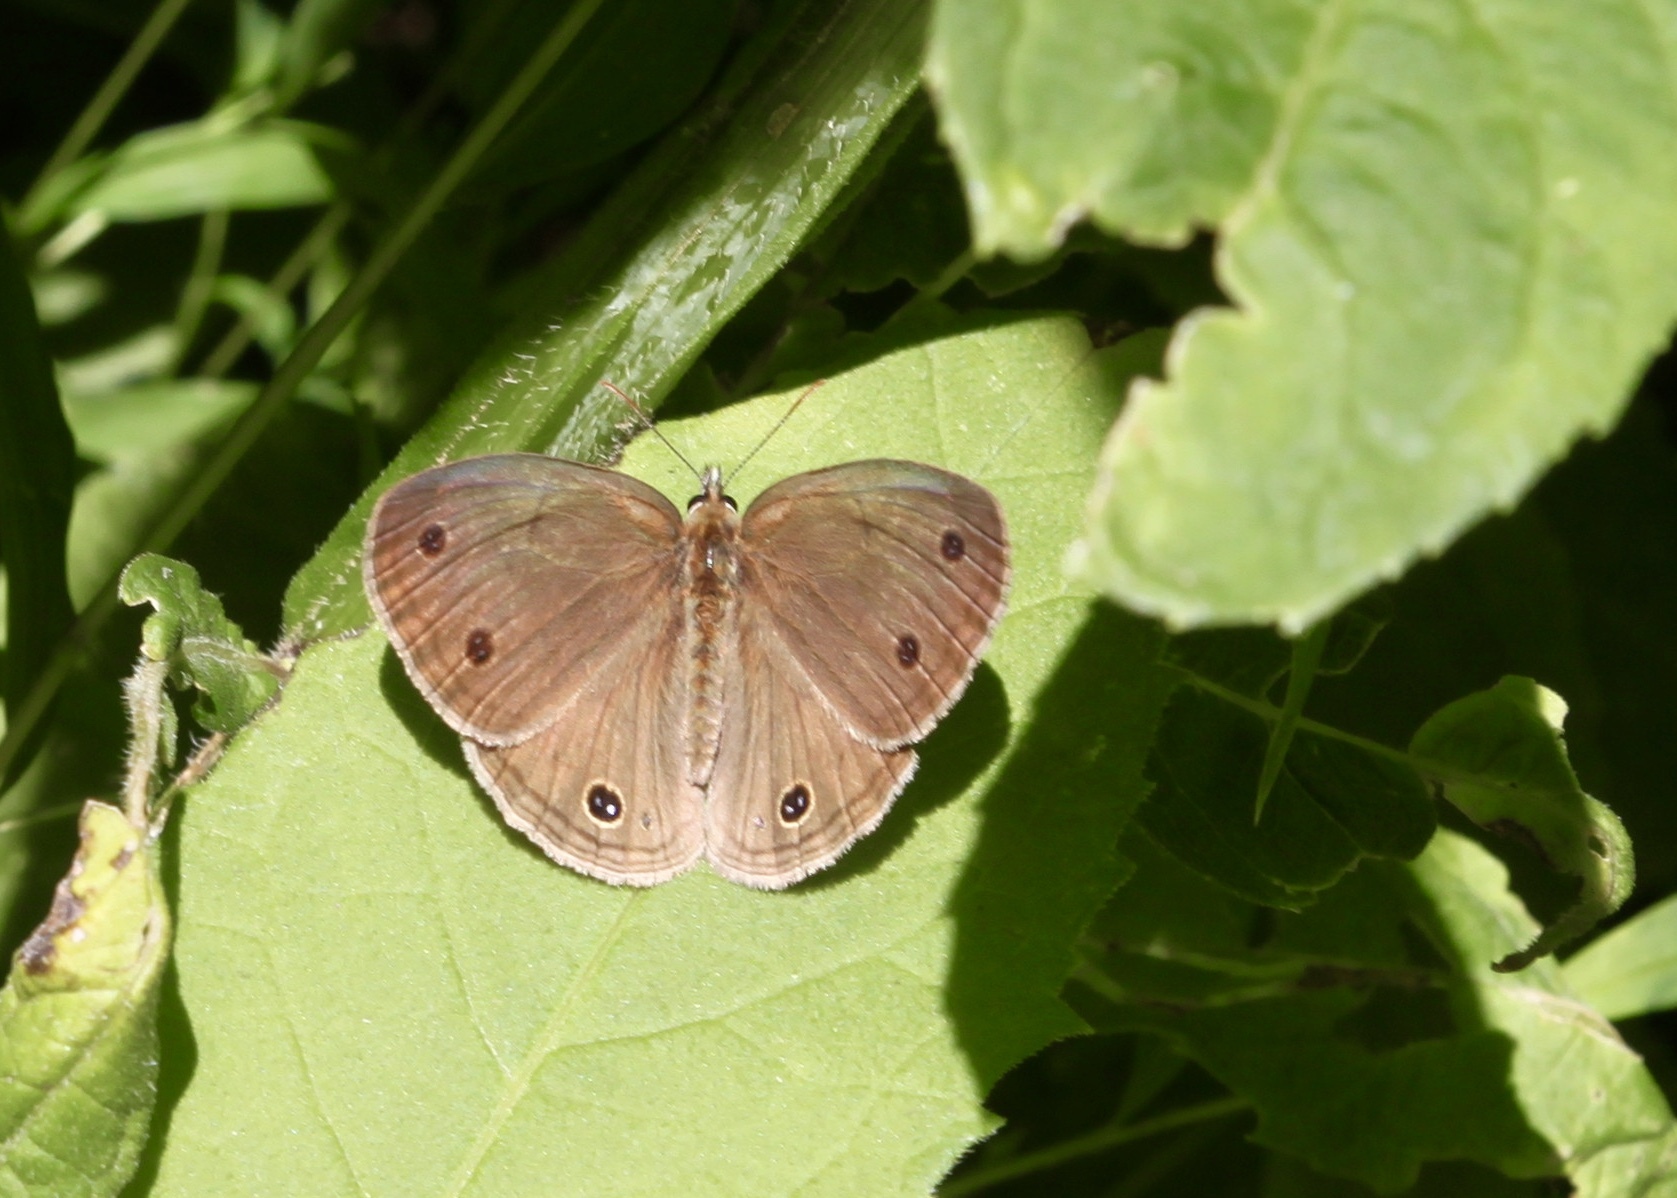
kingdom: Animalia
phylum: Arthropoda
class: Insecta
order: Lepidoptera
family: Nymphalidae
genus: Euptychia
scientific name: Euptychia cymela
